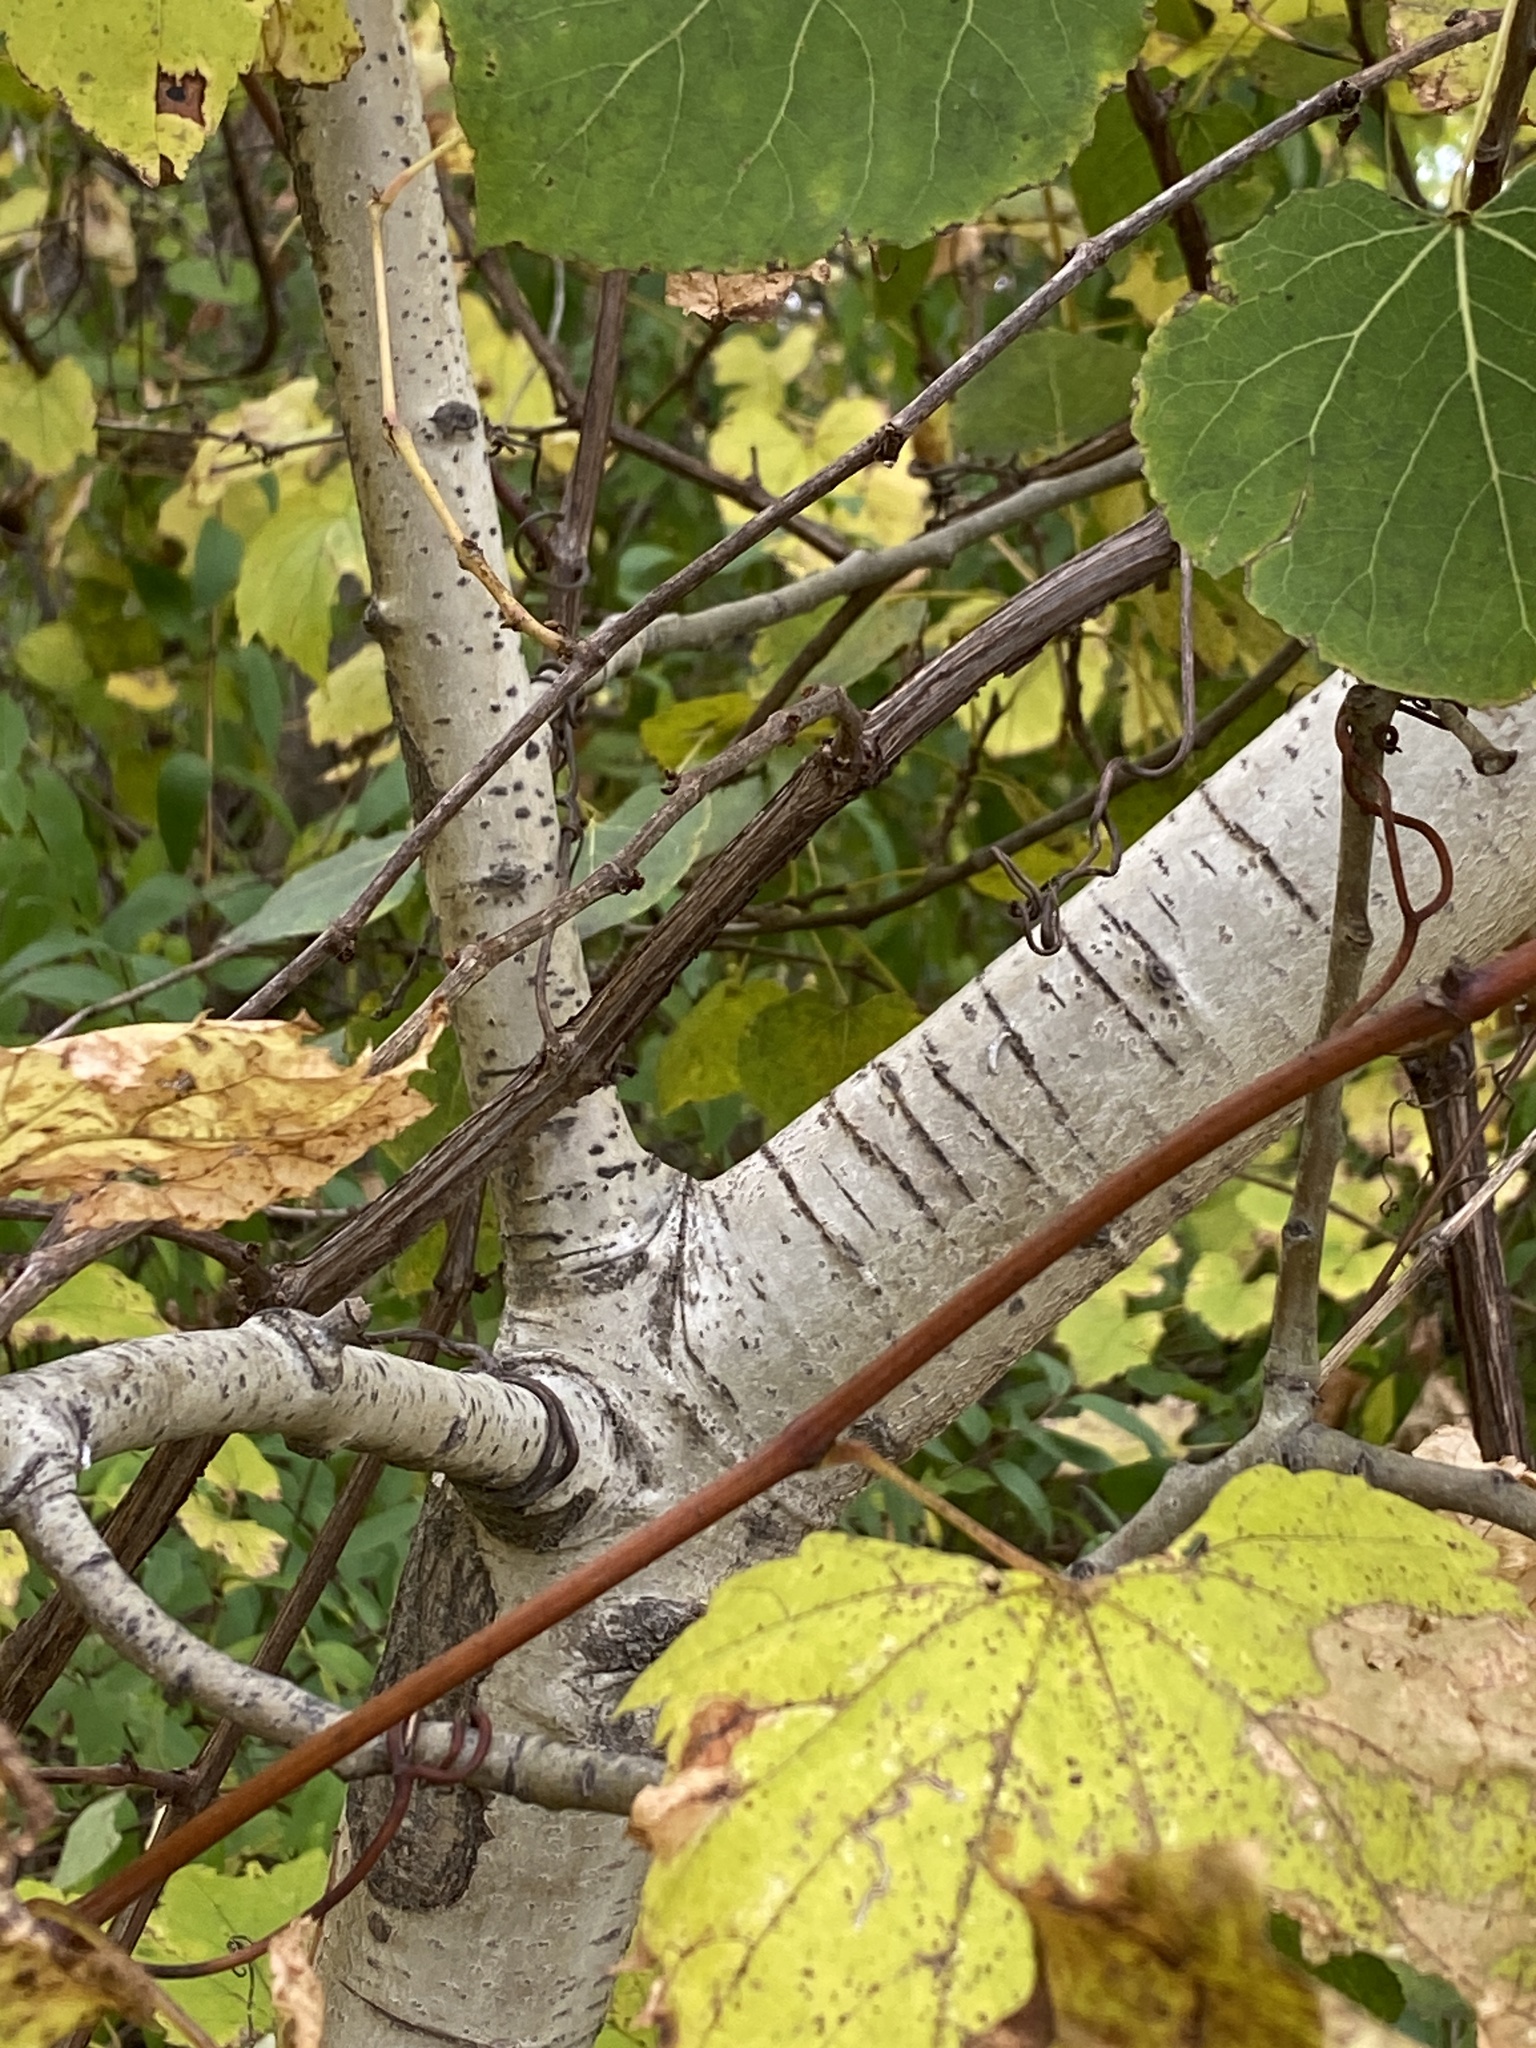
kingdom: Plantae
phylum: Tracheophyta
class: Magnoliopsida
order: Malpighiales
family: Salicaceae
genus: Populus
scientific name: Populus tremuloides
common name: Quaking aspen
